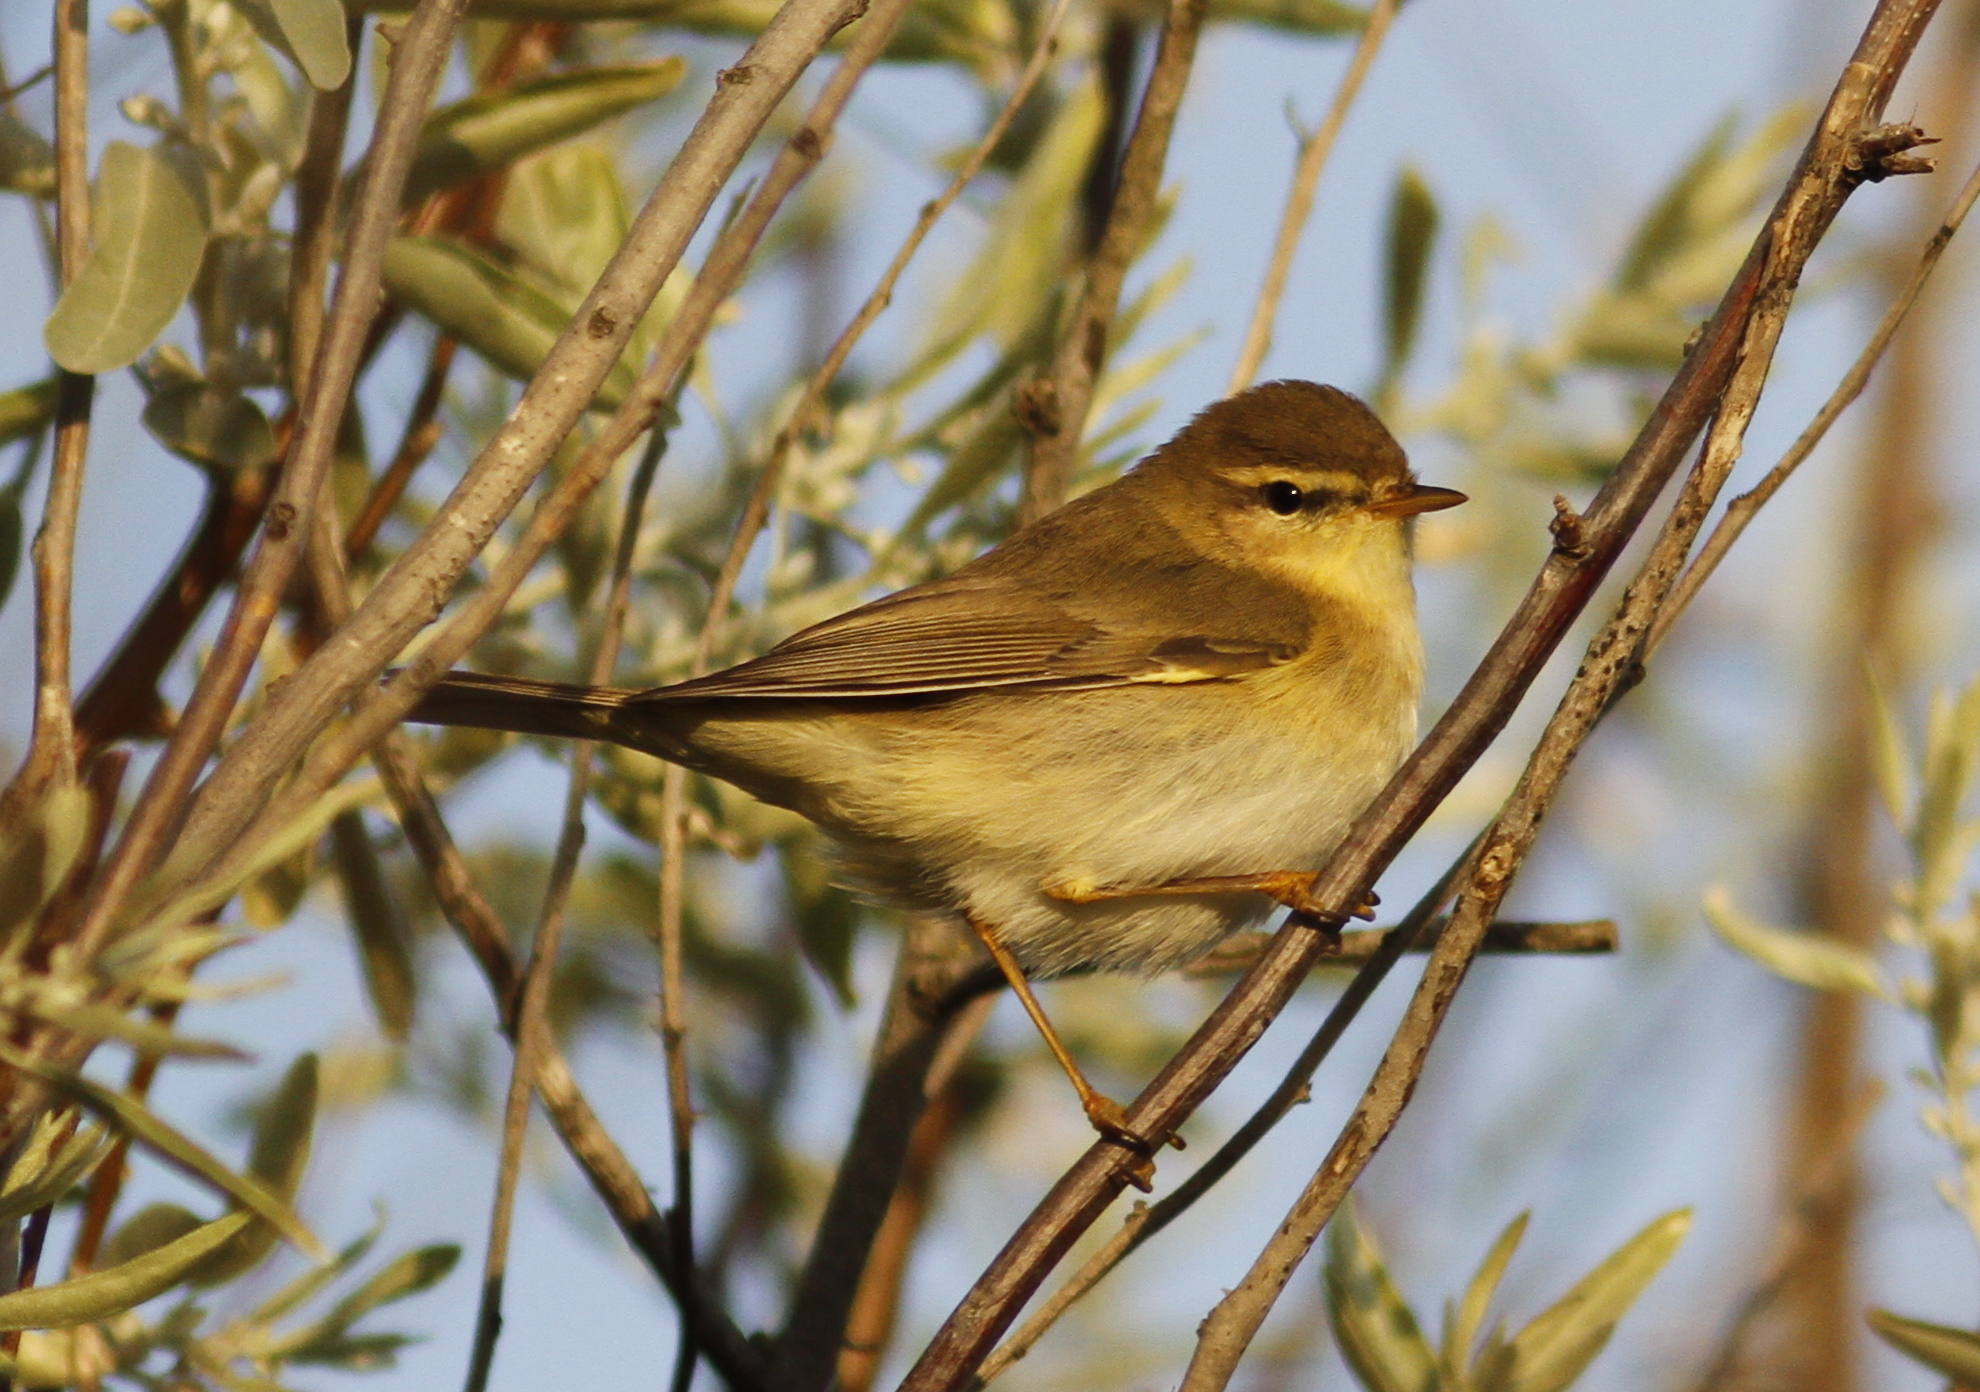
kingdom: Animalia
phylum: Chordata
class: Aves
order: Passeriformes
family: Phylloscopidae
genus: Phylloscopus
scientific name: Phylloscopus trochilus
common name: Willow warbler
